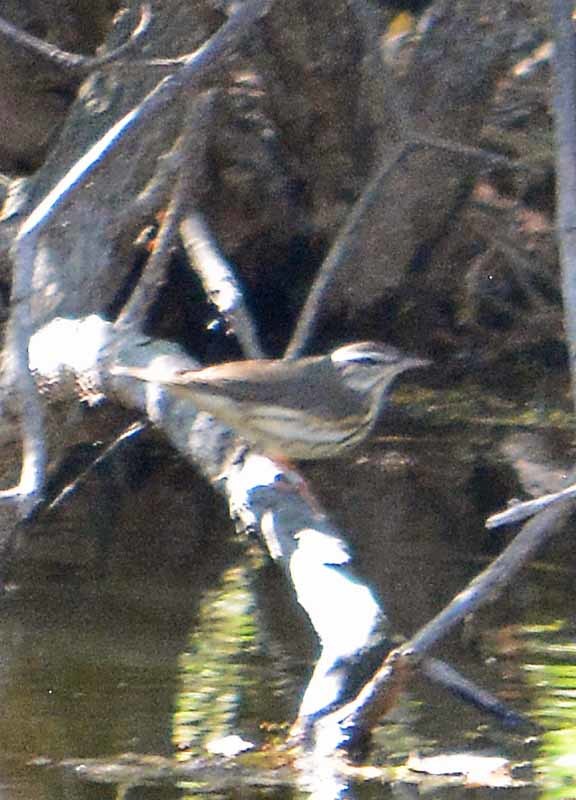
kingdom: Animalia
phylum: Chordata
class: Aves
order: Passeriformes
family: Parulidae
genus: Parkesia
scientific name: Parkesia motacilla
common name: Louisiana waterthrush
